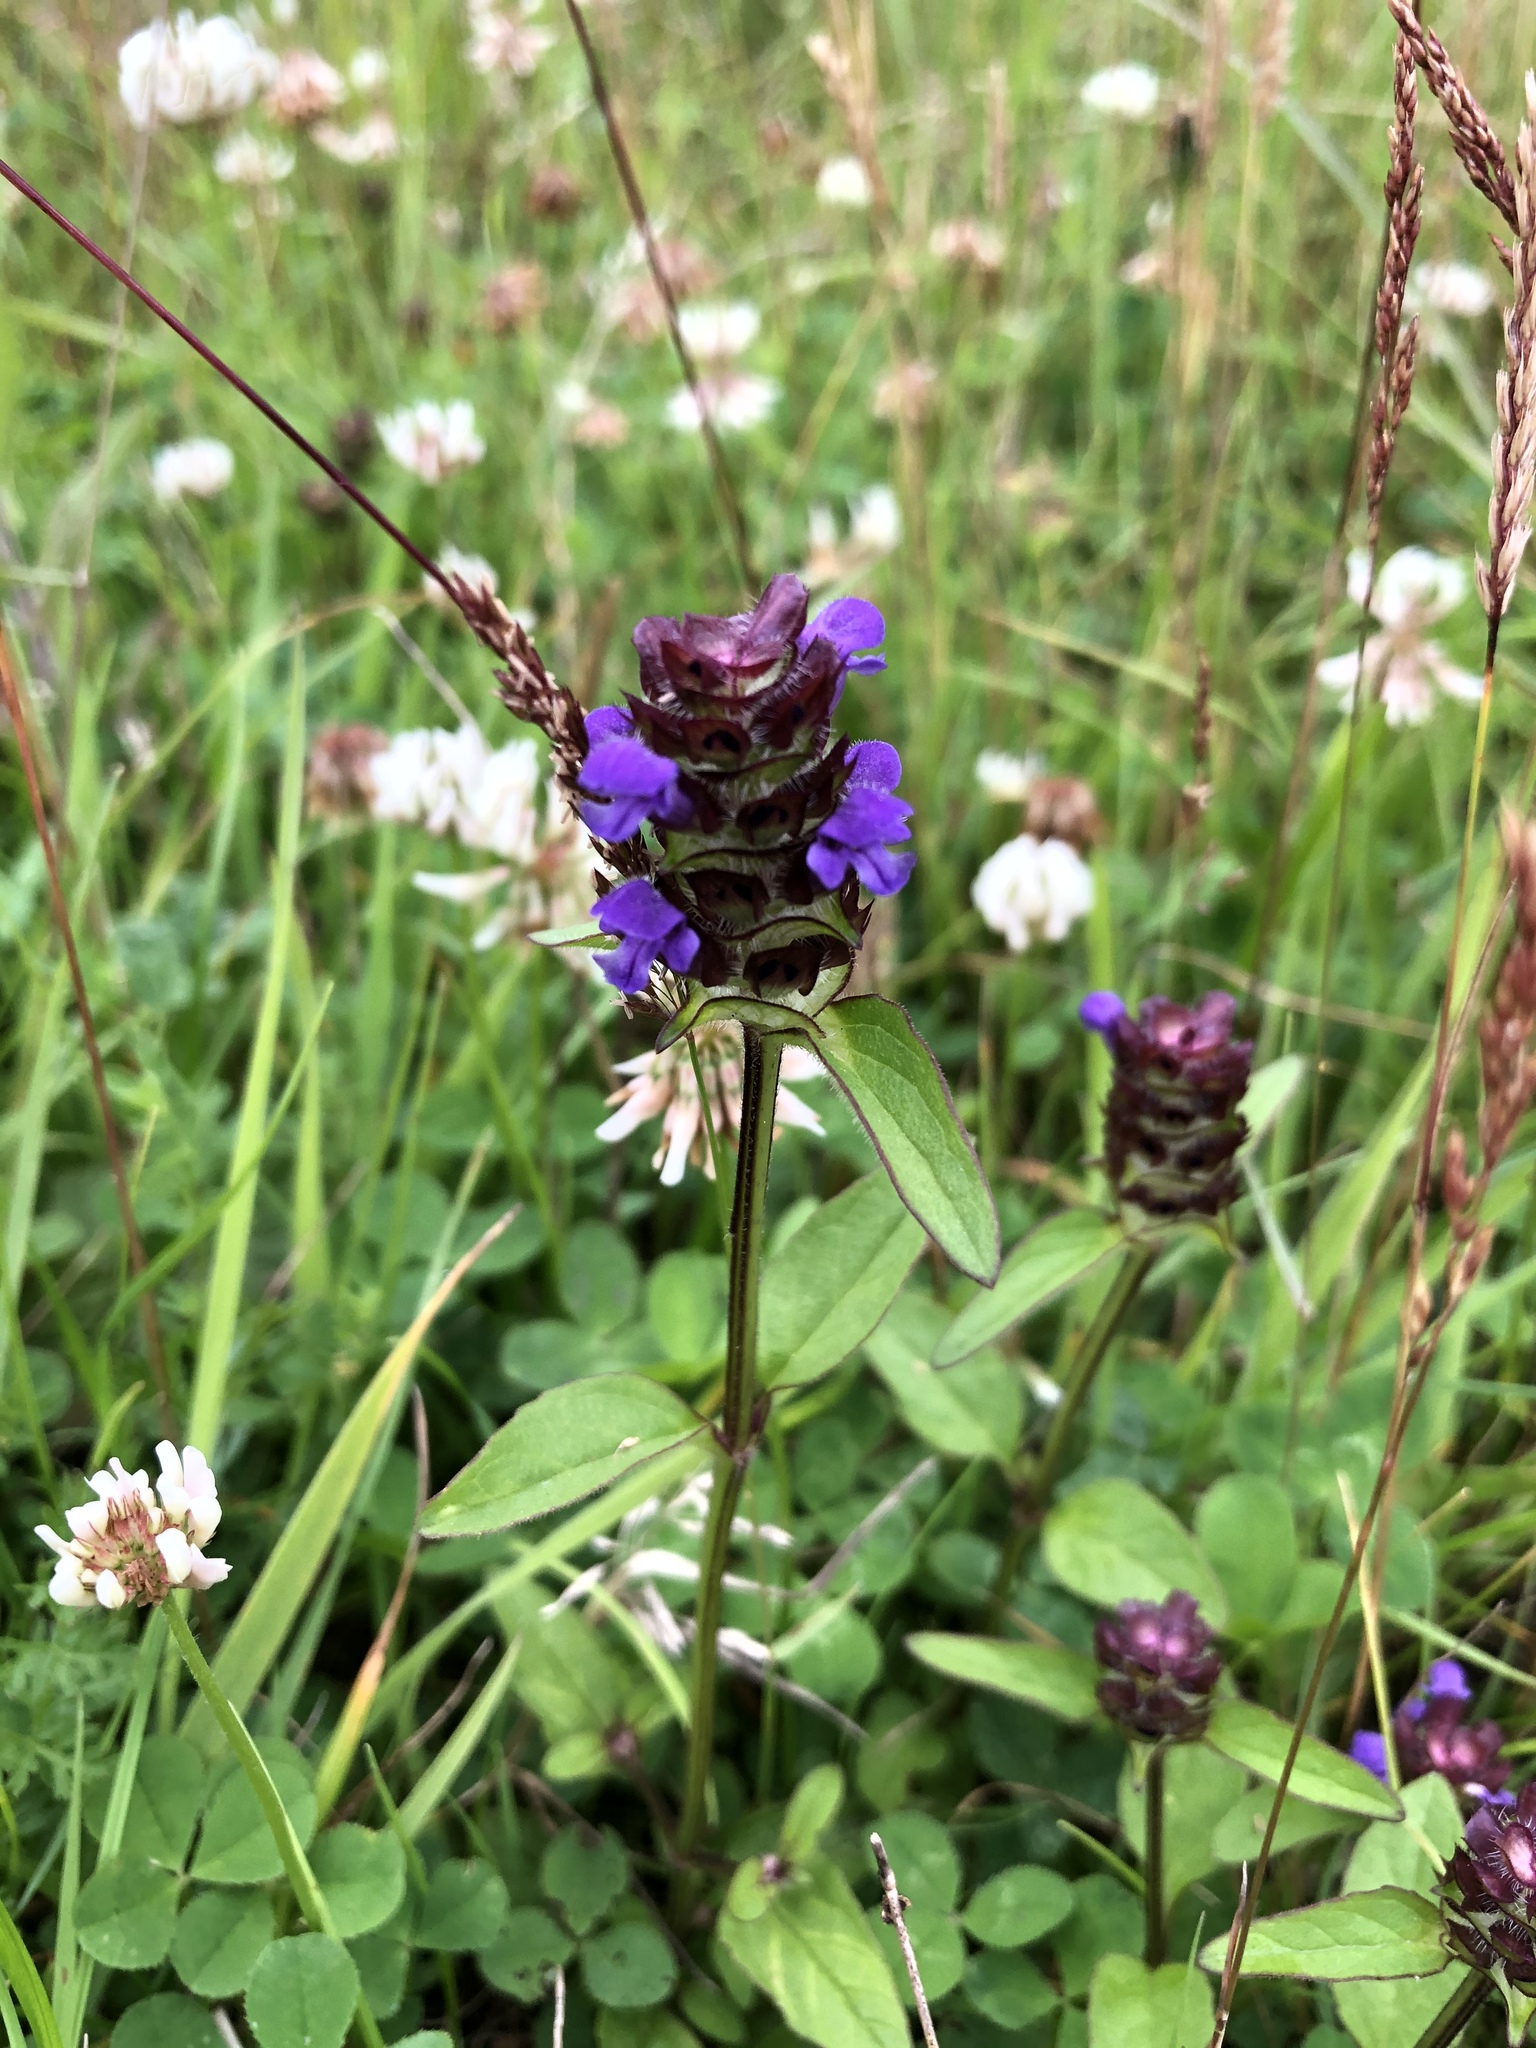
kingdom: Plantae
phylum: Tracheophyta
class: Magnoliopsida
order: Lamiales
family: Lamiaceae
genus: Prunella
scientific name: Prunella vulgaris
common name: Heal-all
